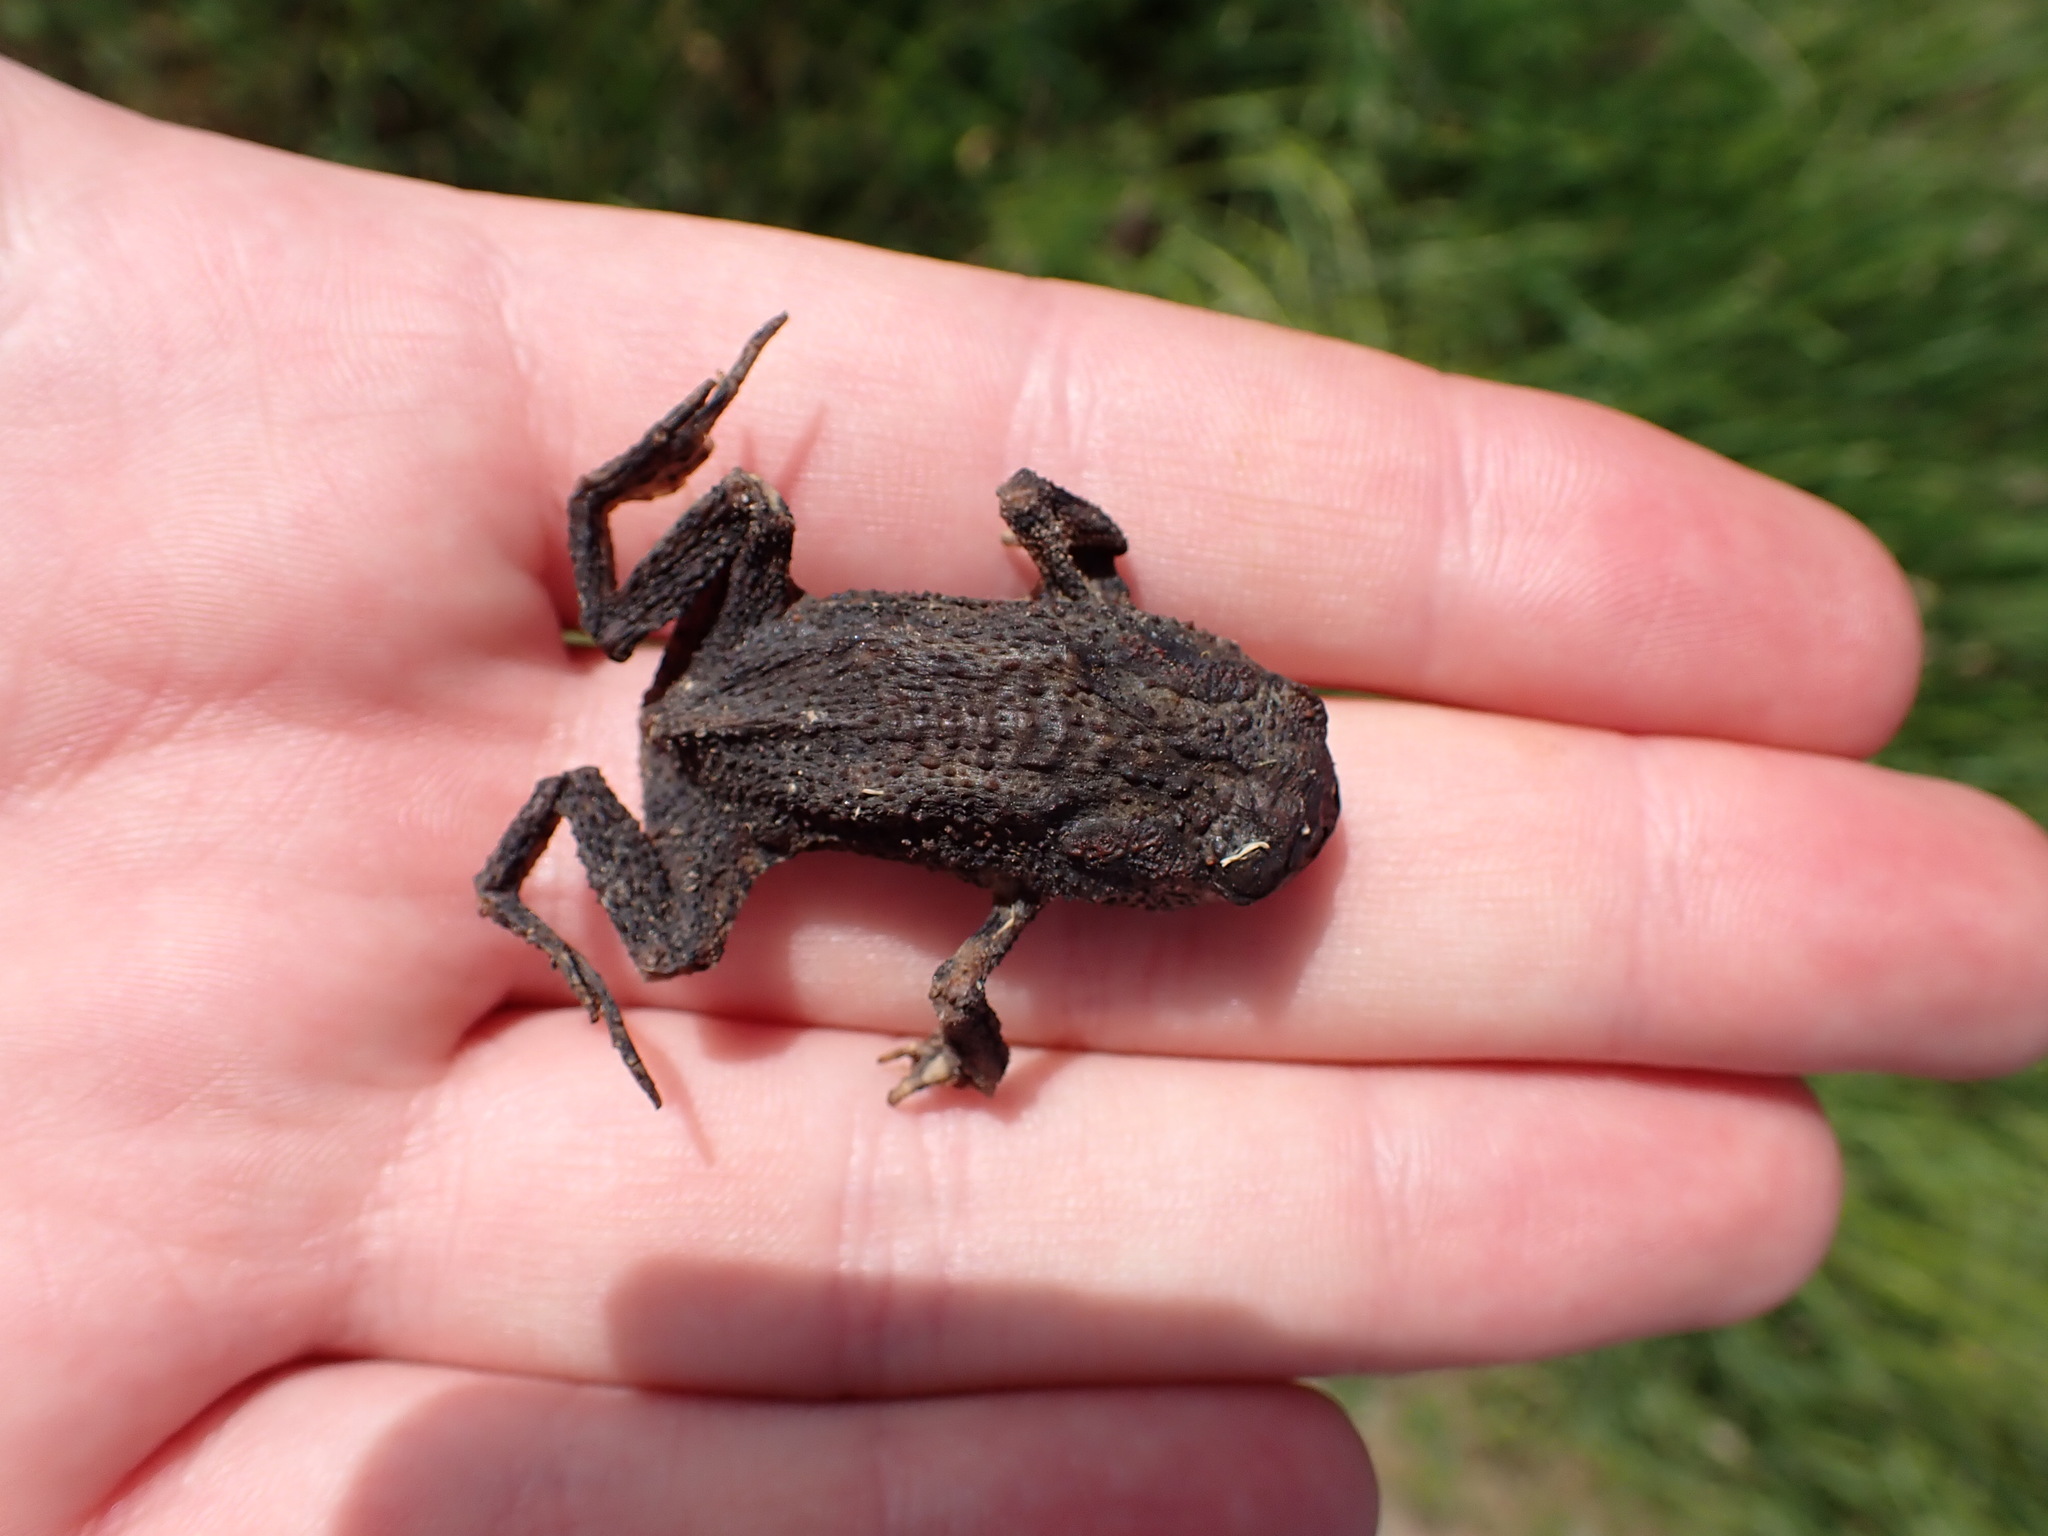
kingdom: Animalia
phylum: Chordata
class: Amphibia
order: Anura
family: Bufonidae
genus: Bufo
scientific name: Bufo bufo
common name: Common toad
